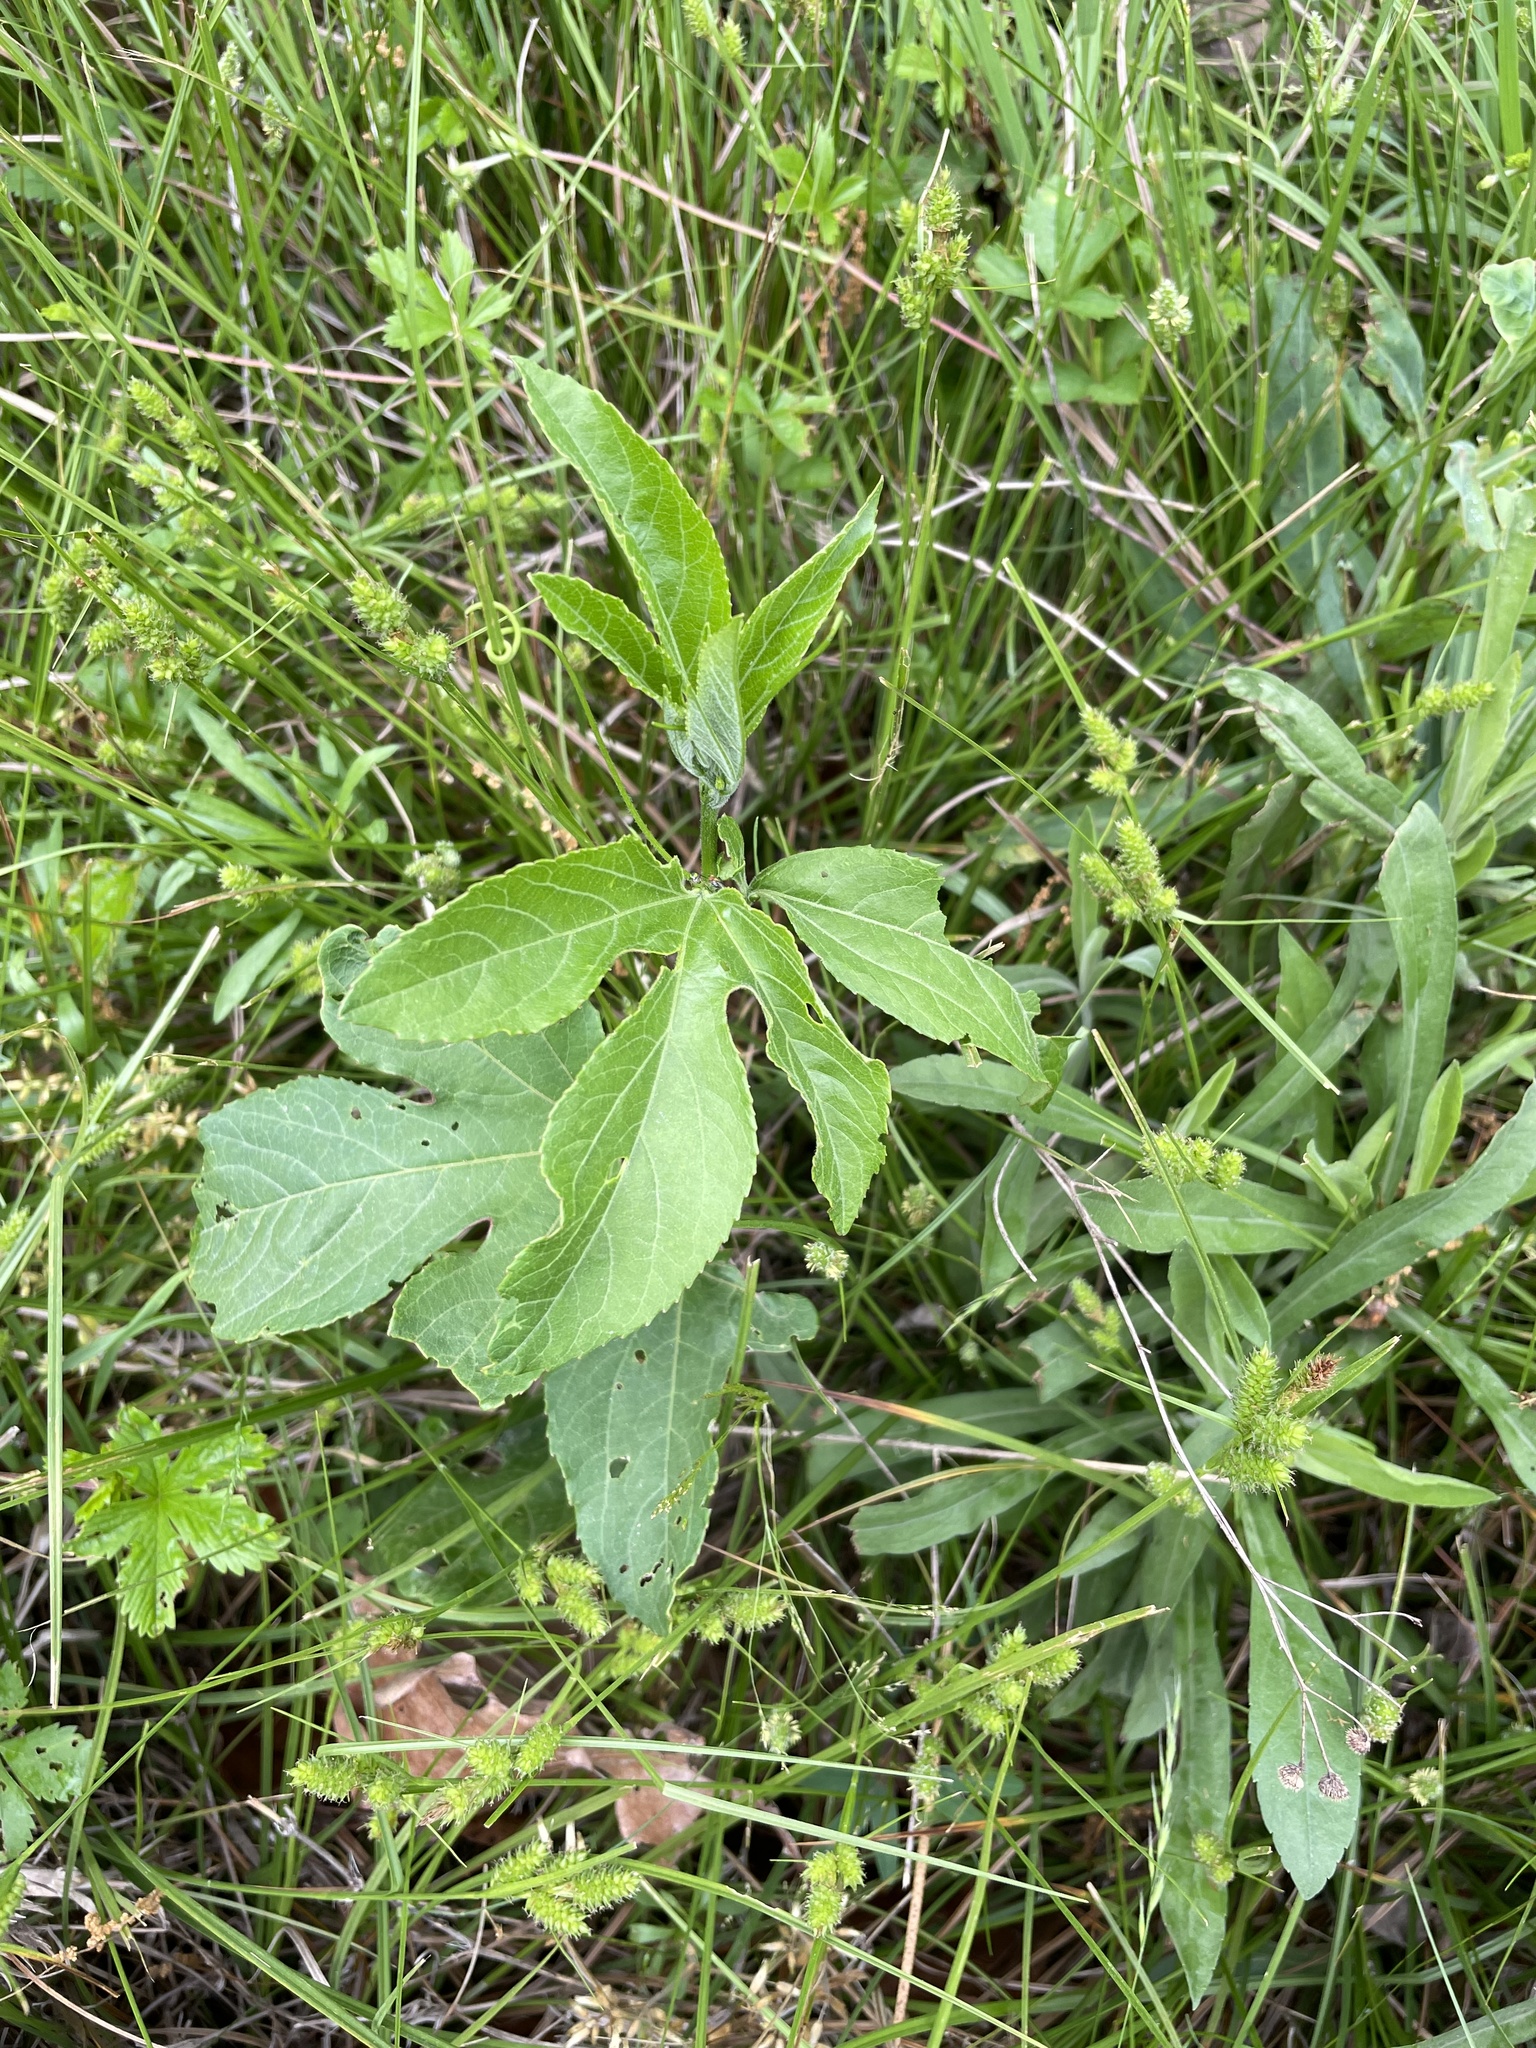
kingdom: Plantae
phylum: Tracheophyta
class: Magnoliopsida
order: Malpighiales
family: Passifloraceae
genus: Passiflora
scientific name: Passiflora incarnata
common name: Apricot-vine
